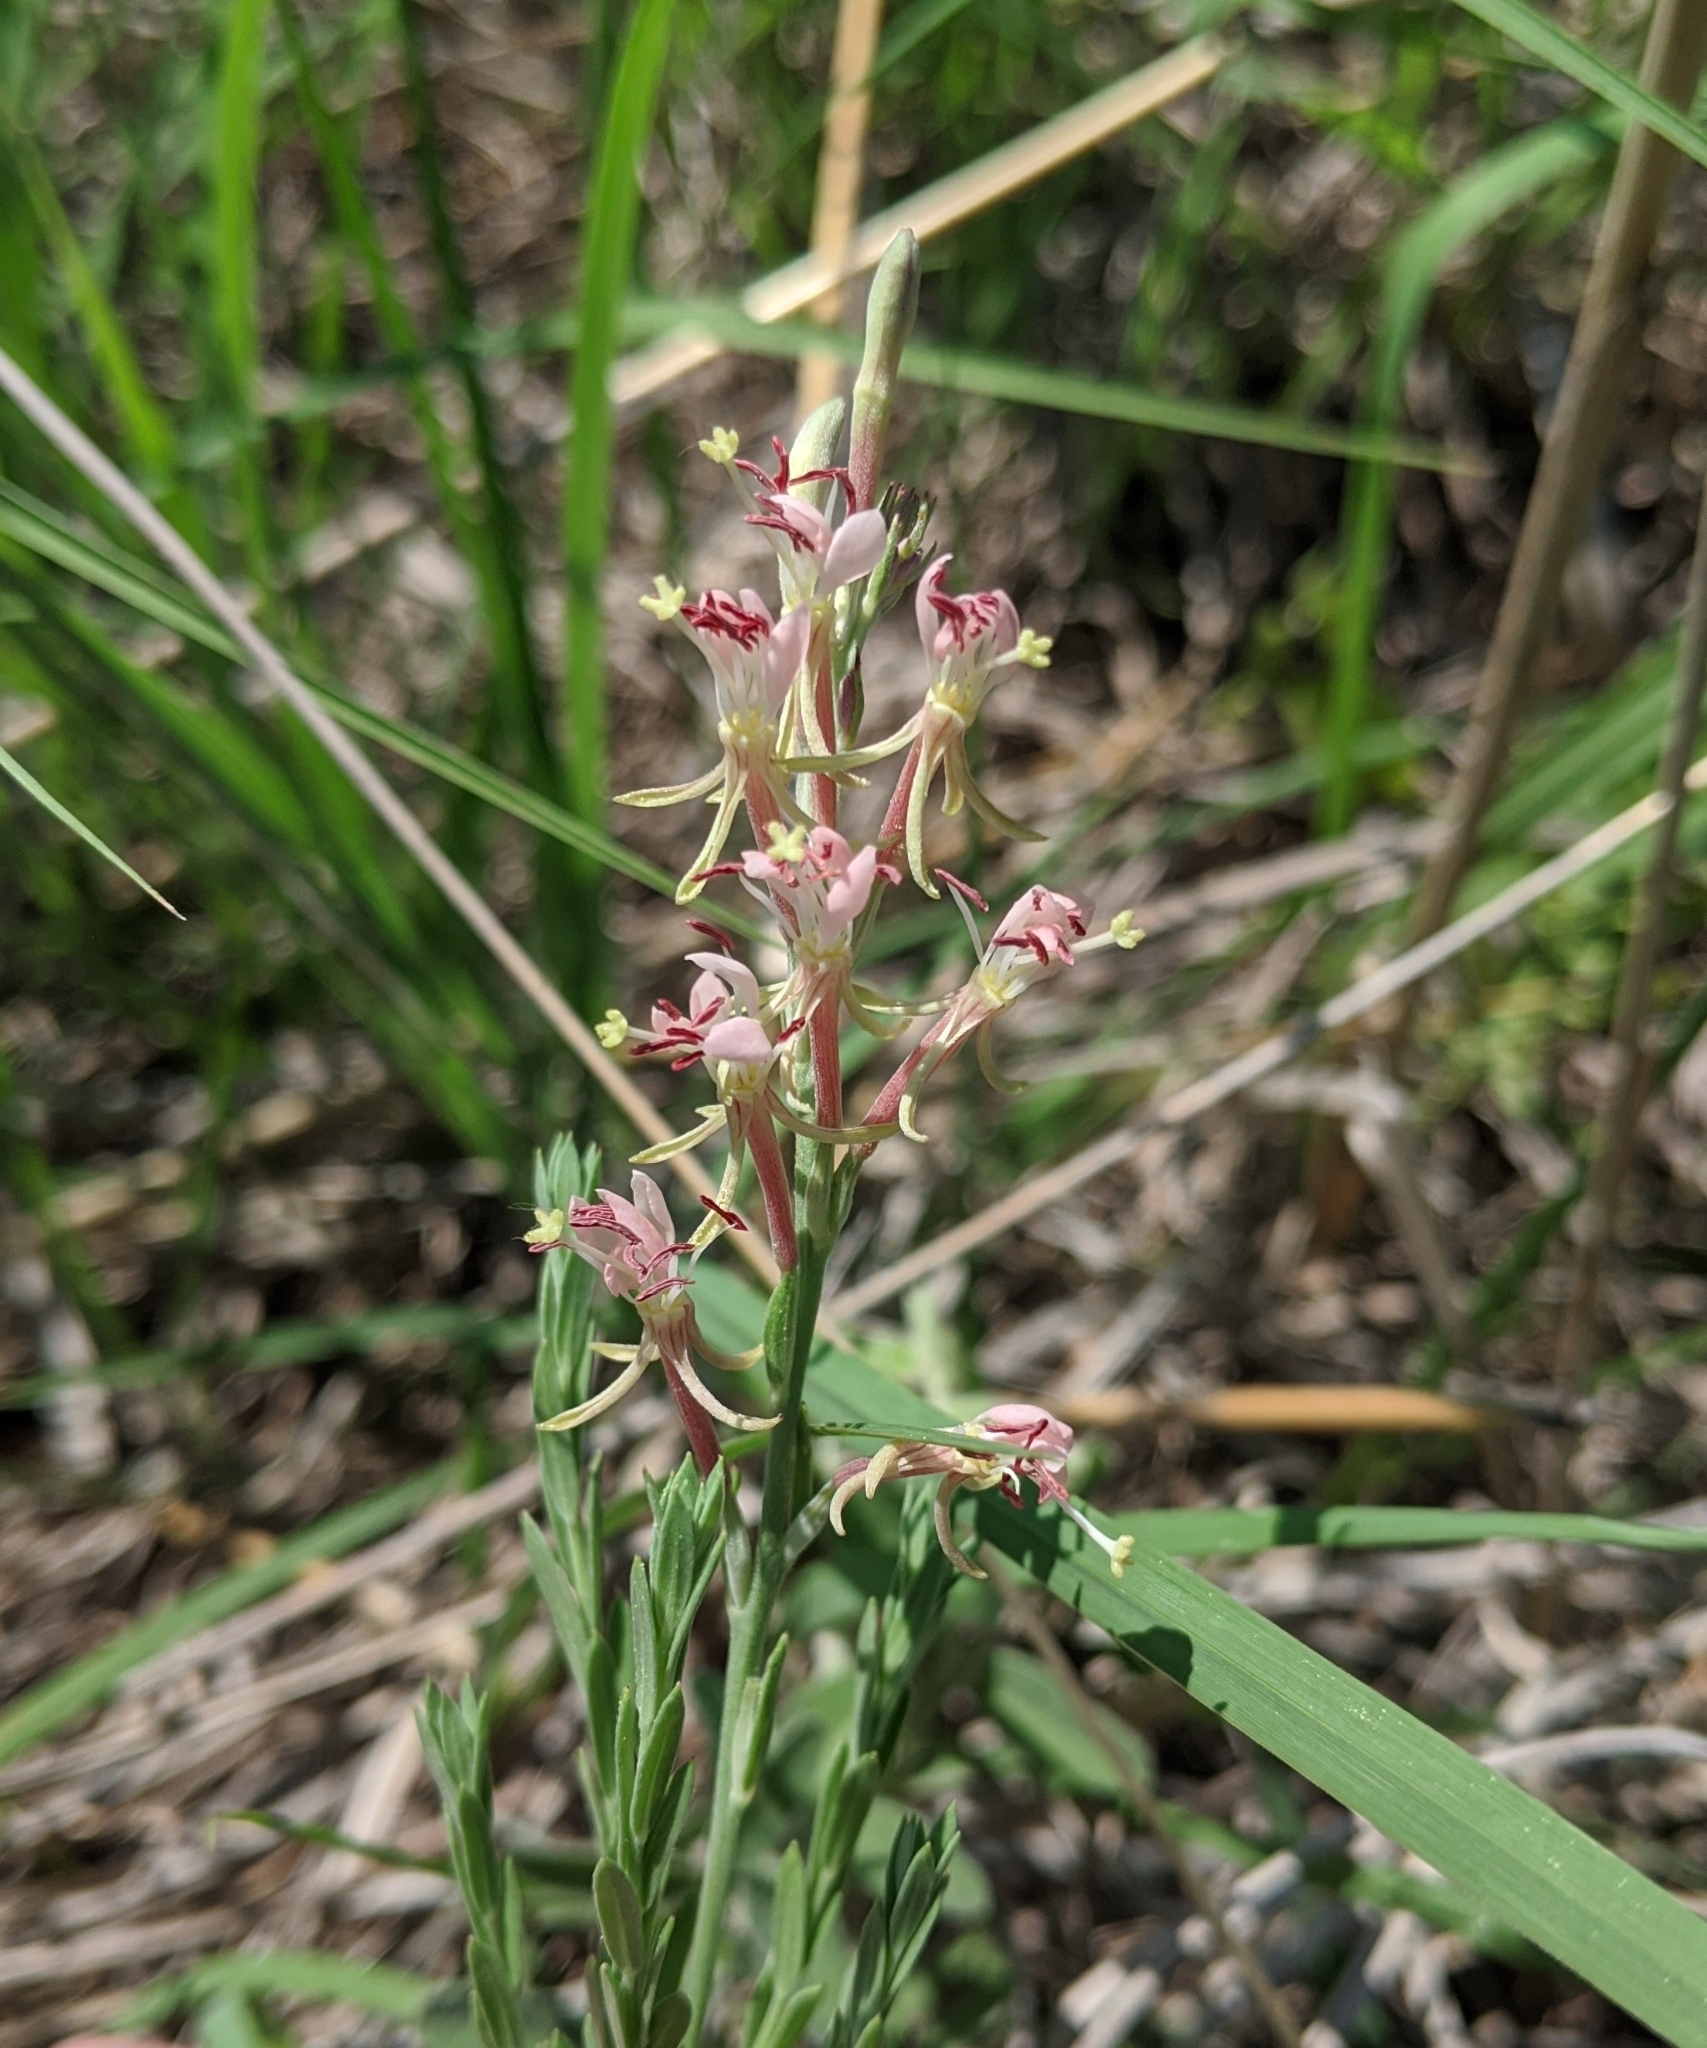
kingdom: Plantae
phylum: Tracheophyta
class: Magnoliopsida
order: Myrtales
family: Onagraceae
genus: Oenothera
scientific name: Oenothera suffrutescens
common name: Scarlet beeblossom
